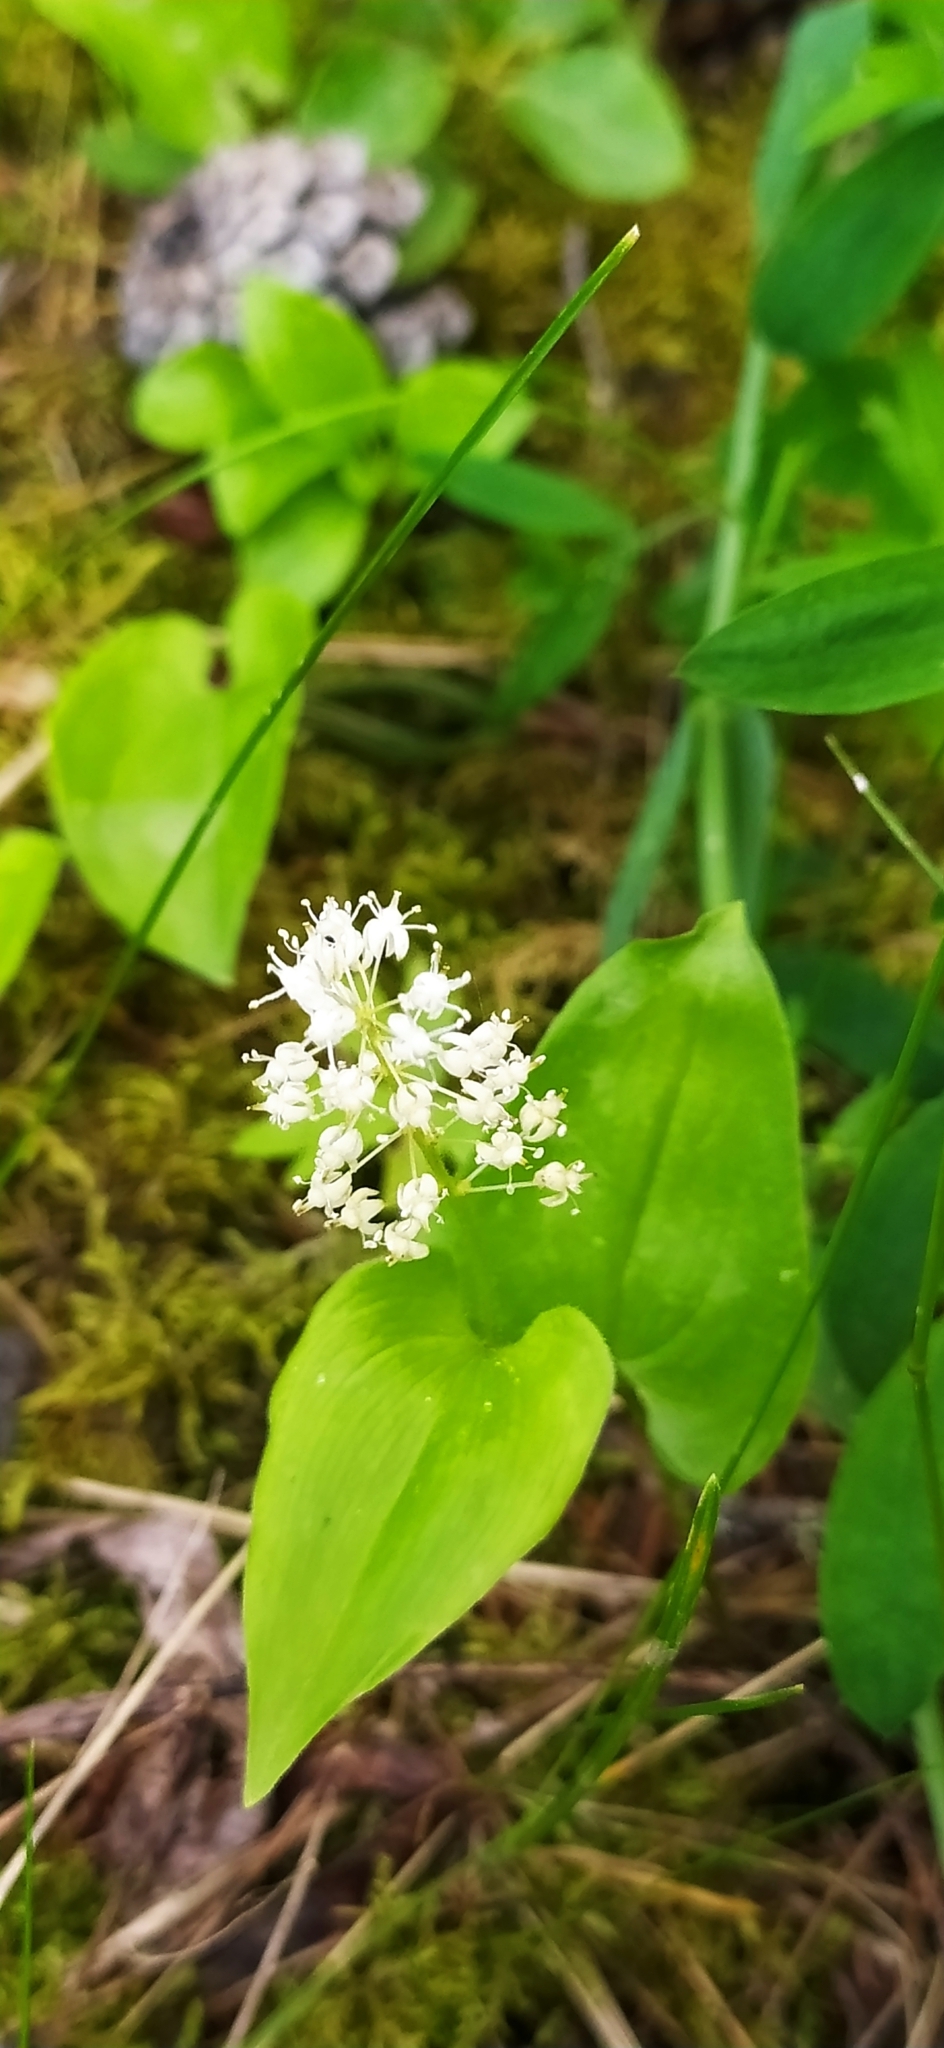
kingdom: Plantae
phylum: Tracheophyta
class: Liliopsida
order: Asparagales
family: Asparagaceae
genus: Maianthemum
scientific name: Maianthemum bifolium
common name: May lily
